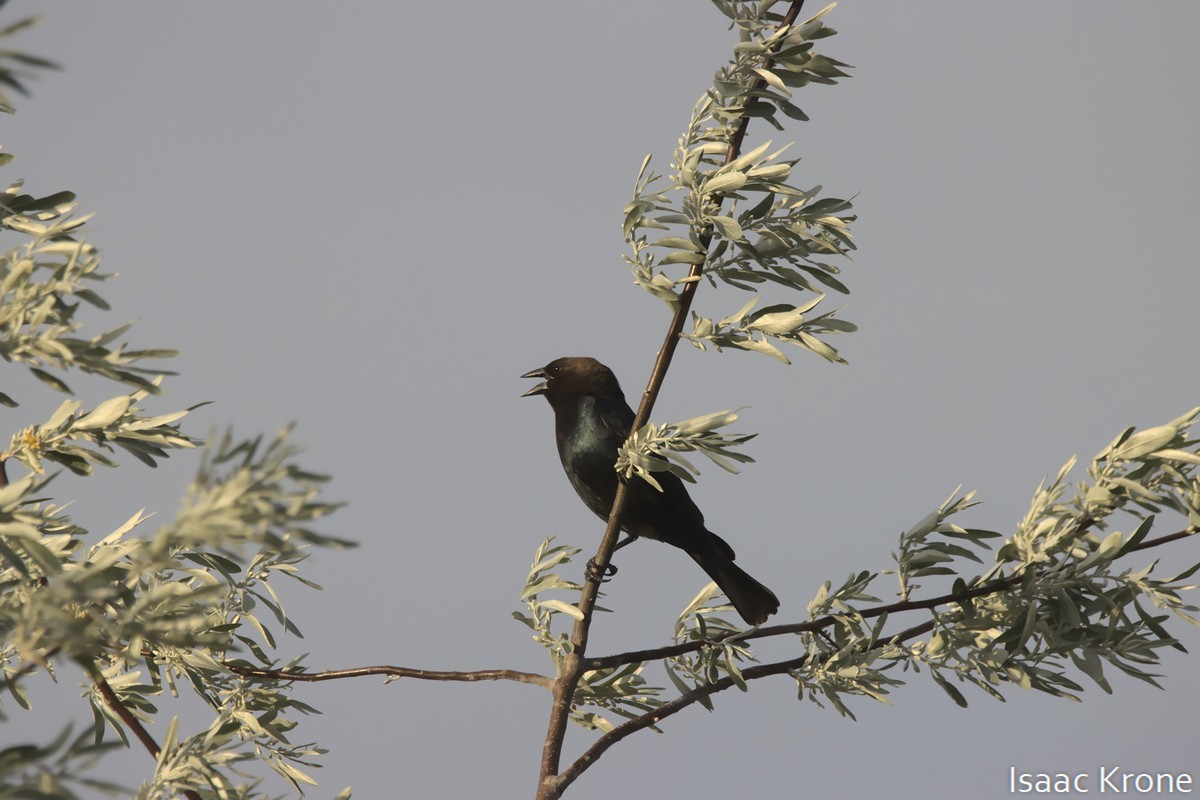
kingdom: Animalia
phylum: Chordata
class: Aves
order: Passeriformes
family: Icteridae
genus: Molothrus
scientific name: Molothrus ater
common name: Brown-headed cowbird
